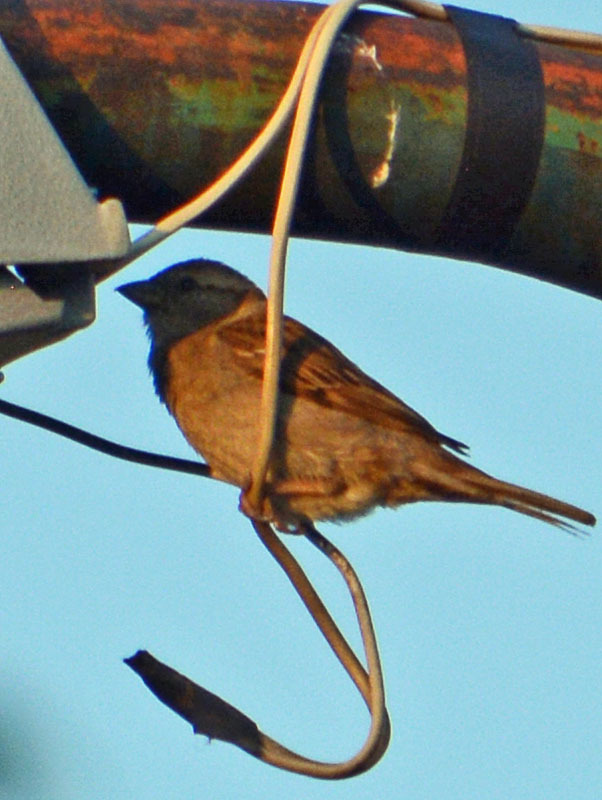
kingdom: Animalia
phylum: Chordata
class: Aves
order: Passeriformes
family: Passeridae
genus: Passer
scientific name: Passer domesticus
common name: House sparrow
